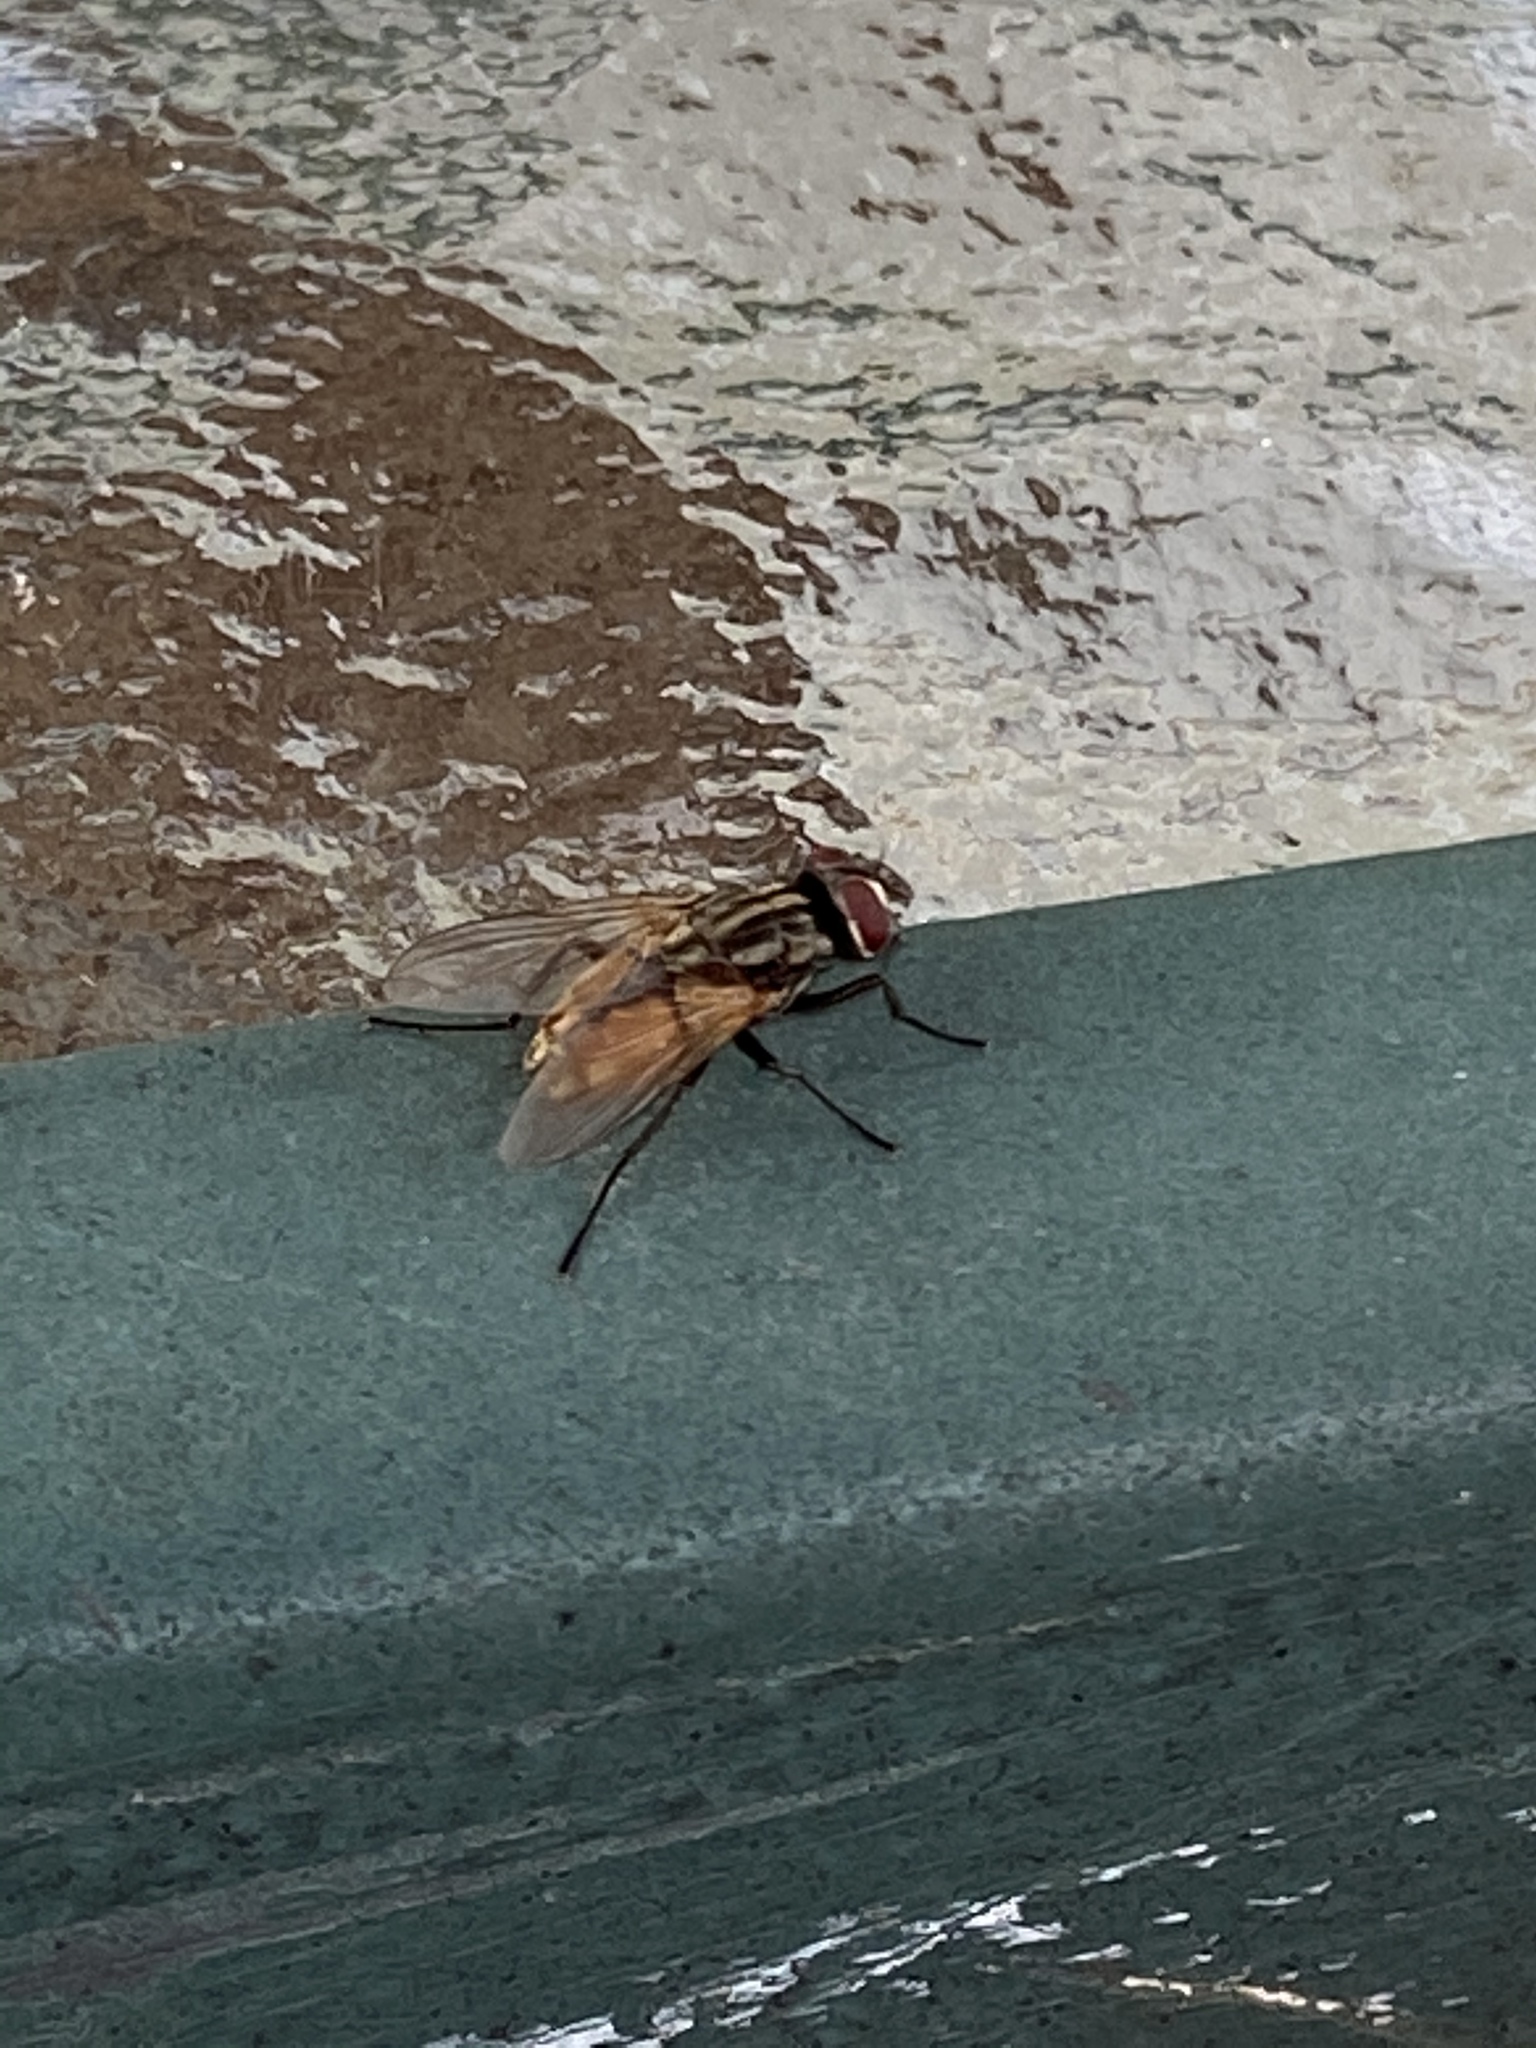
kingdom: Animalia
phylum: Arthropoda
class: Insecta
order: Diptera
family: Muscidae
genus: Musca
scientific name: Musca domestica
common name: House fly
